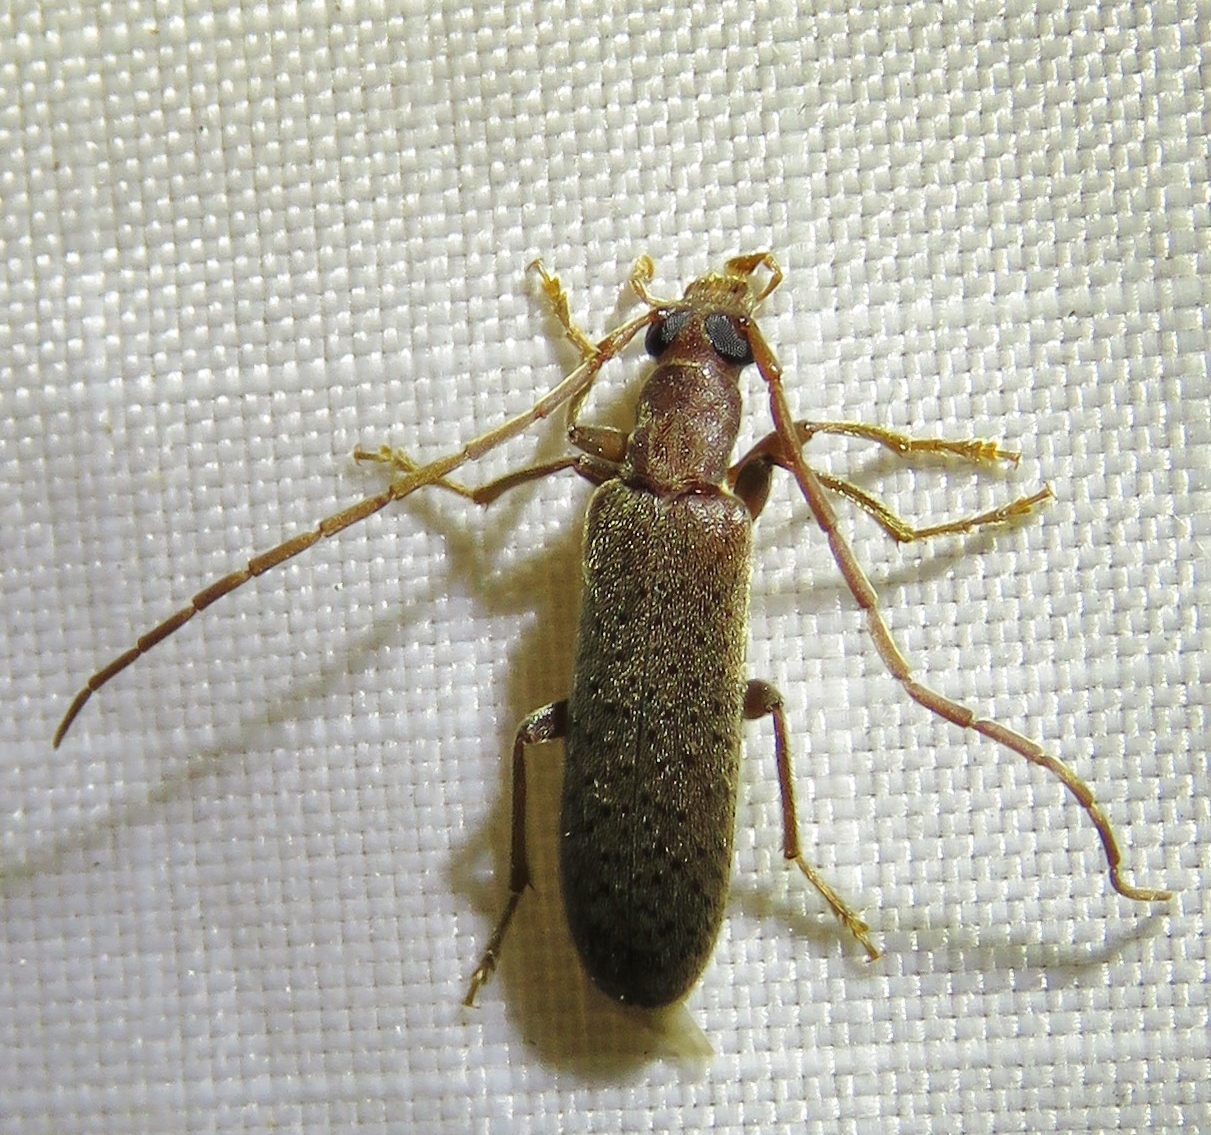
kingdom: Animalia
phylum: Arthropoda
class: Insecta
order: Coleoptera
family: Oedemeridae
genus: Sparedrus
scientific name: Sparedrus aspersus
